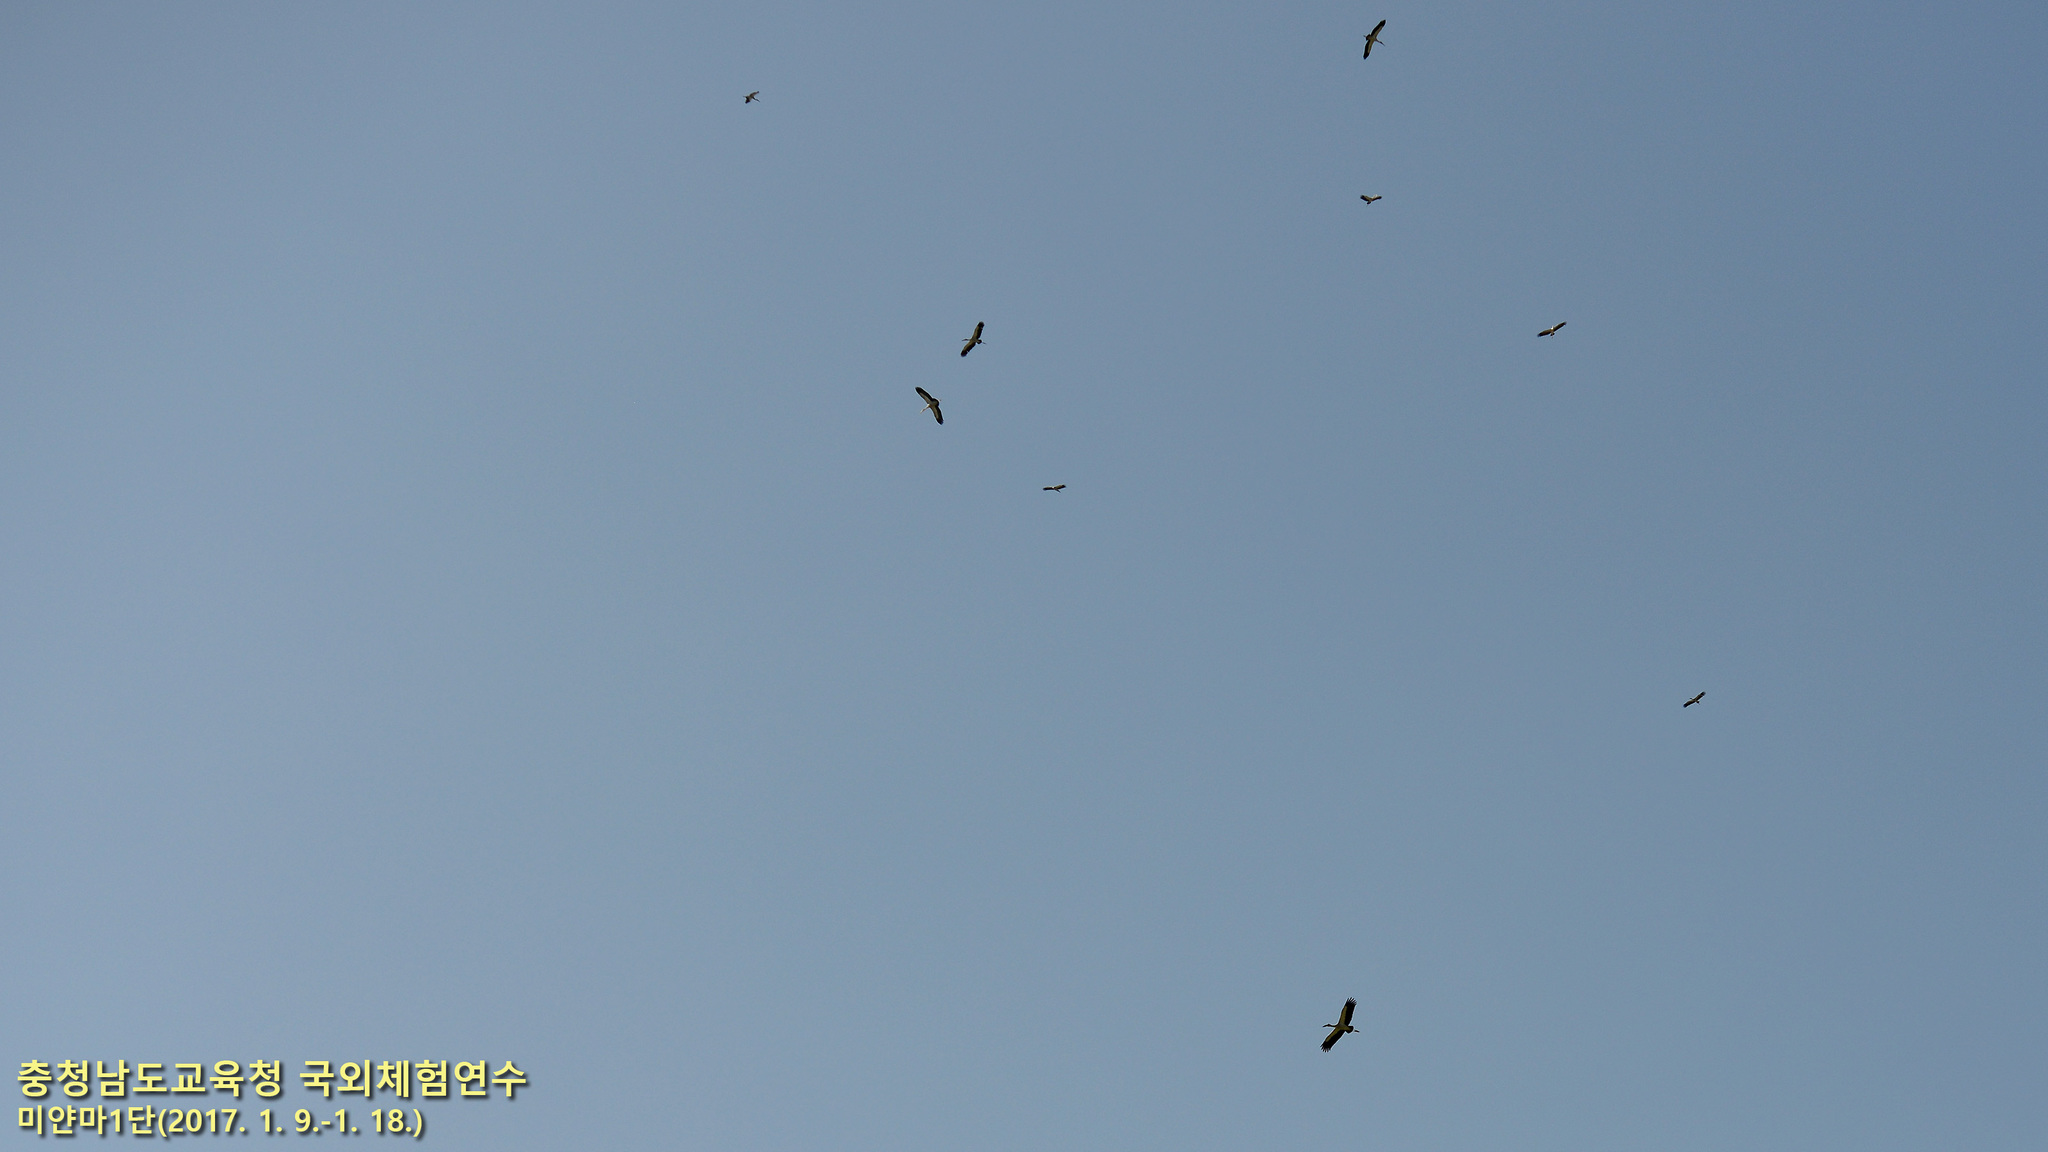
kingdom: Animalia
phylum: Chordata
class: Aves
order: Ciconiiformes
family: Ciconiidae
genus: Anastomus
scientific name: Anastomus oscitans
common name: Asian openbill
